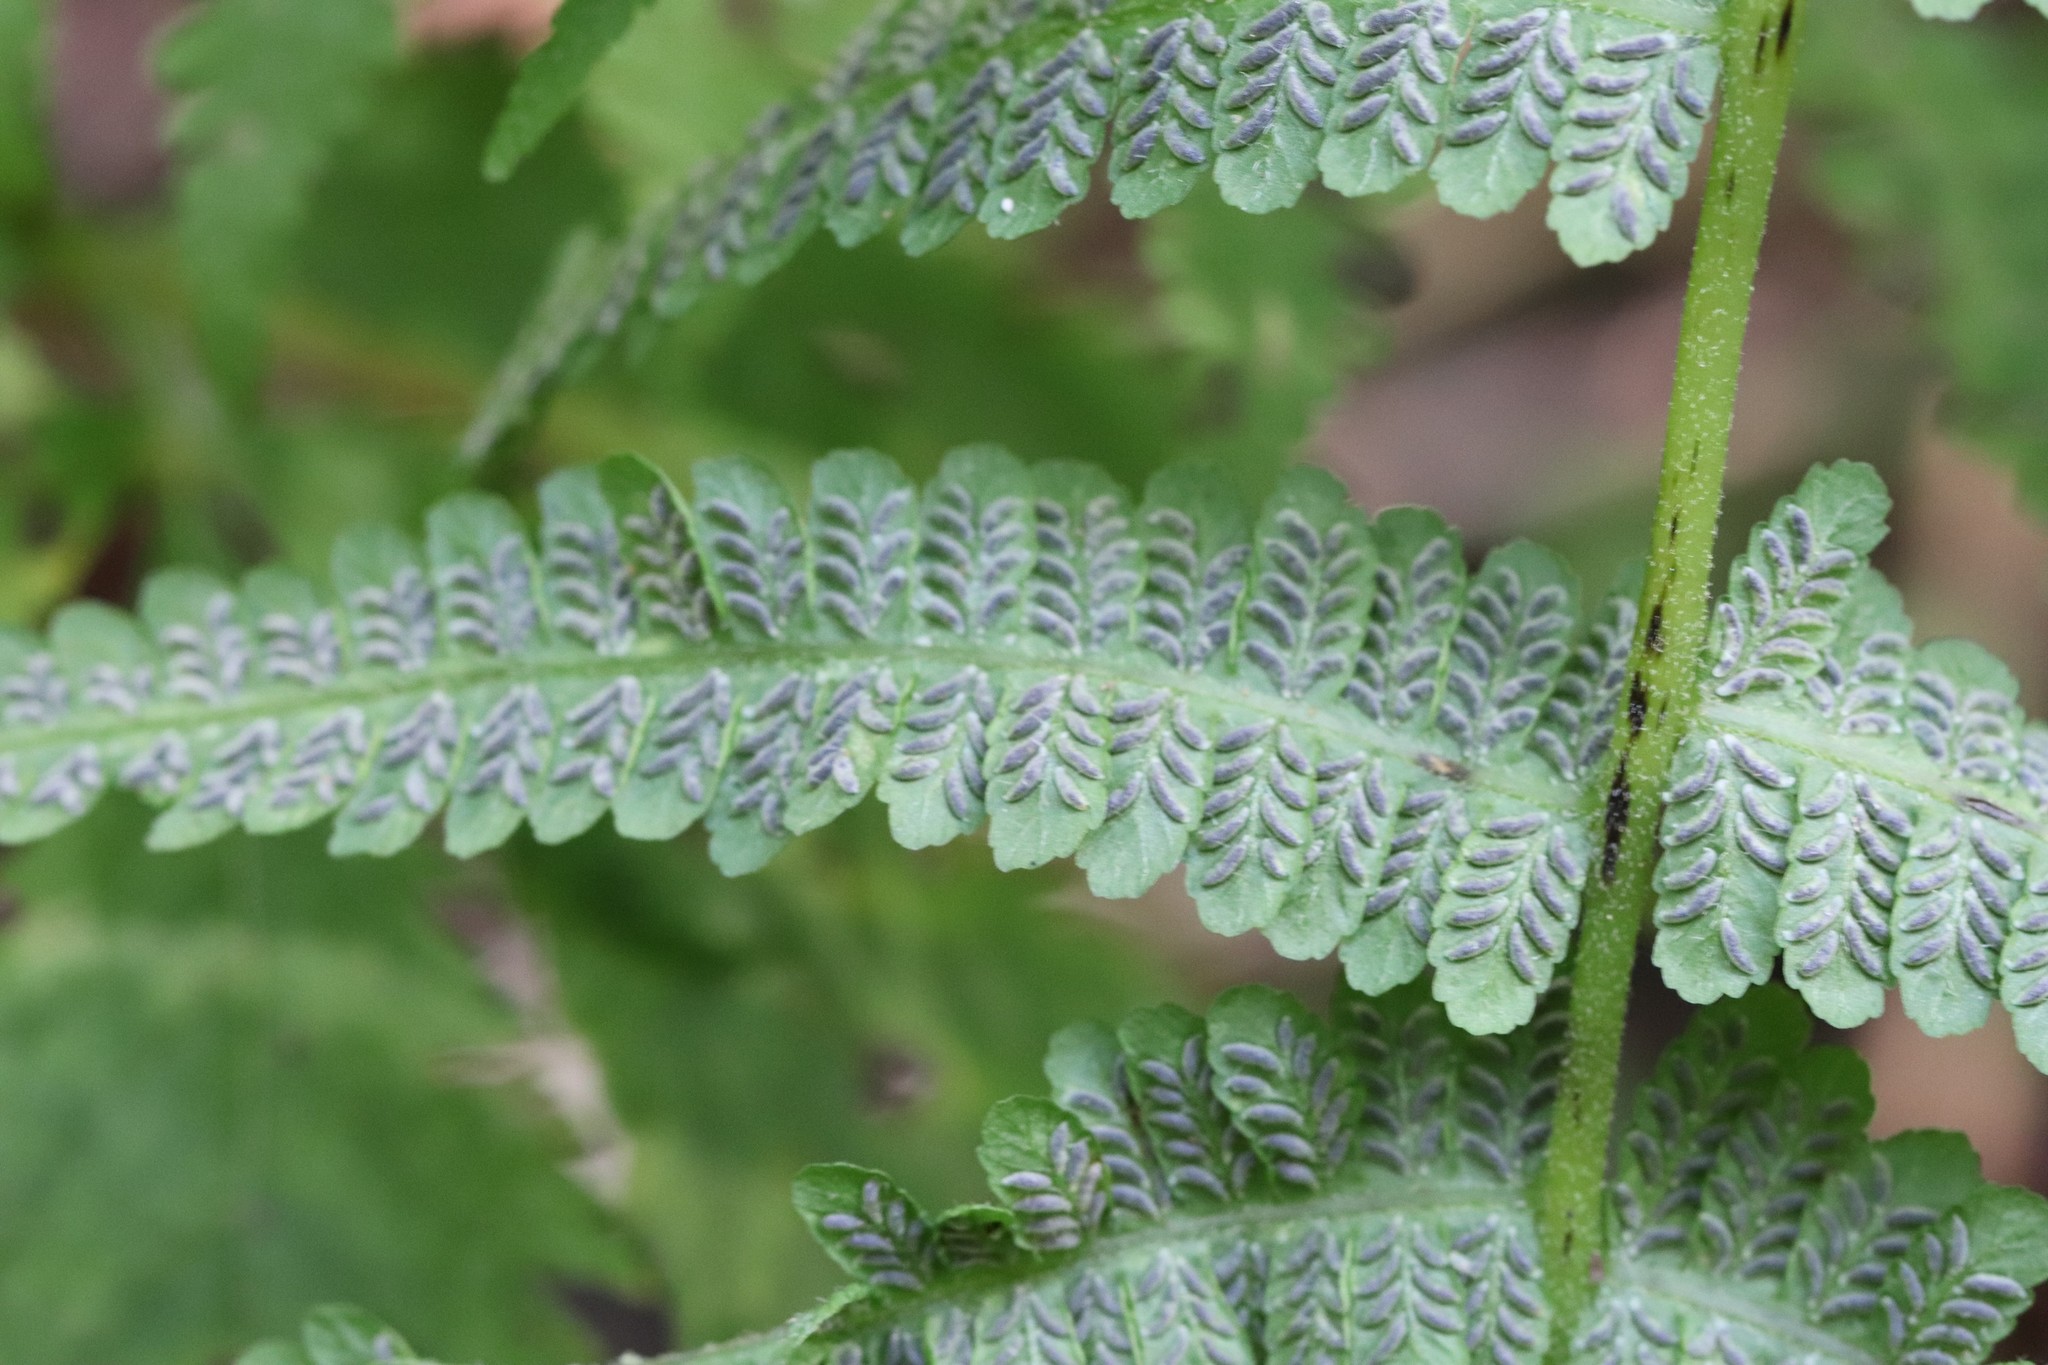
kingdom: Plantae
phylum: Tracheophyta
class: Polypodiopsida
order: Polypodiales
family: Athyriaceae
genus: Deparia
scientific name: Deparia pycnosora
